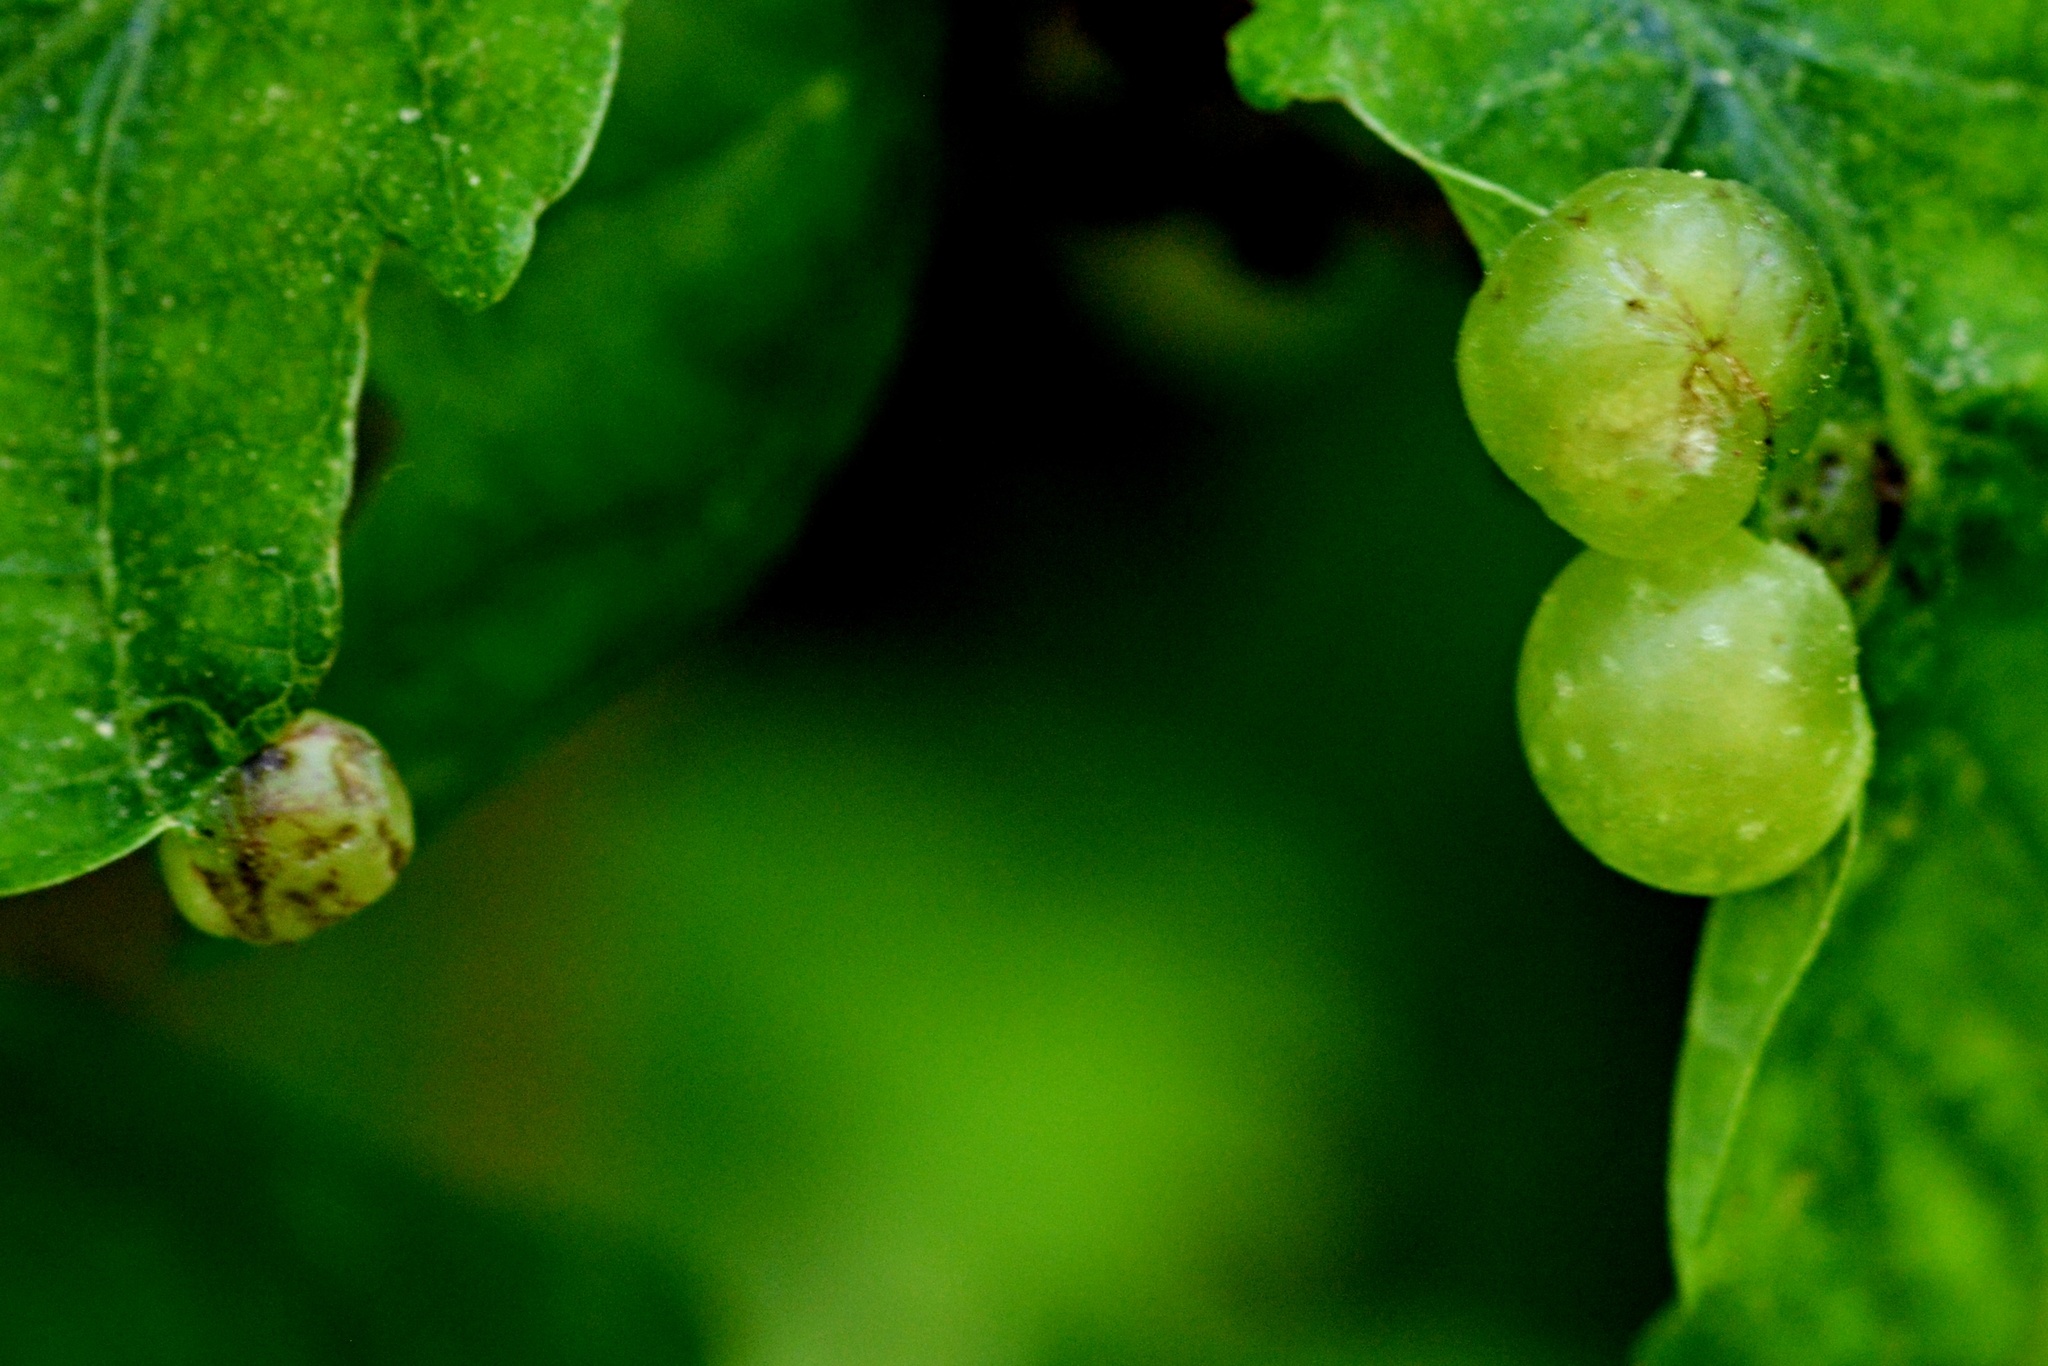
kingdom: Animalia
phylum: Arthropoda
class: Insecta
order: Hymenoptera
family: Cynipidae
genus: Neuroterus
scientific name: Neuroterus quercusbaccarum
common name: Common spangle gall
